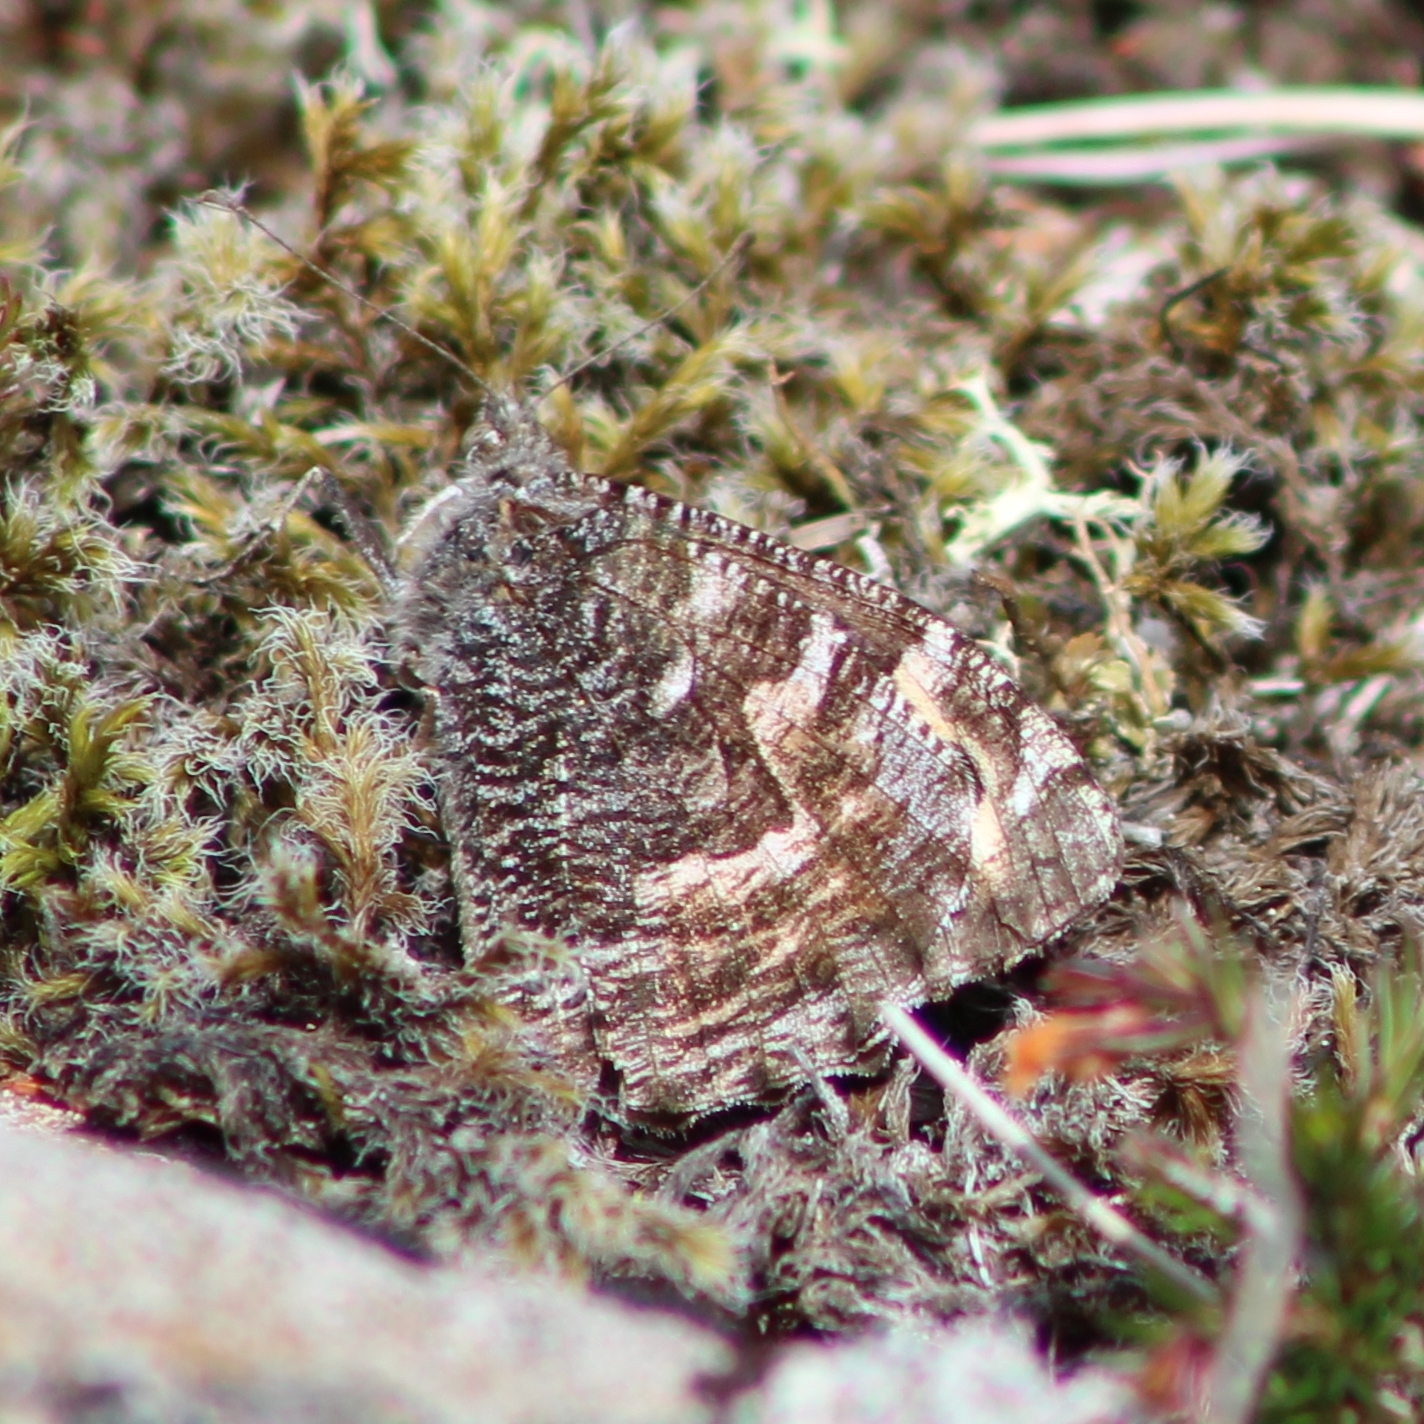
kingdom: Animalia
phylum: Arthropoda
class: Insecta
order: Lepidoptera
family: Nymphalidae
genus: Hipparchia
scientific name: Hipparchia semele
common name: Grayling
